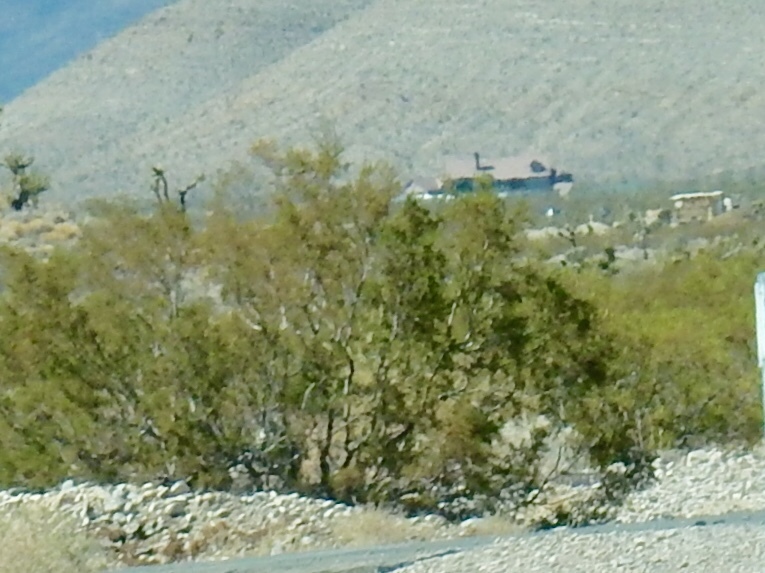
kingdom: Plantae
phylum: Tracheophyta
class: Magnoliopsida
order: Zygophyllales
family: Zygophyllaceae
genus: Larrea
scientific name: Larrea tridentata
